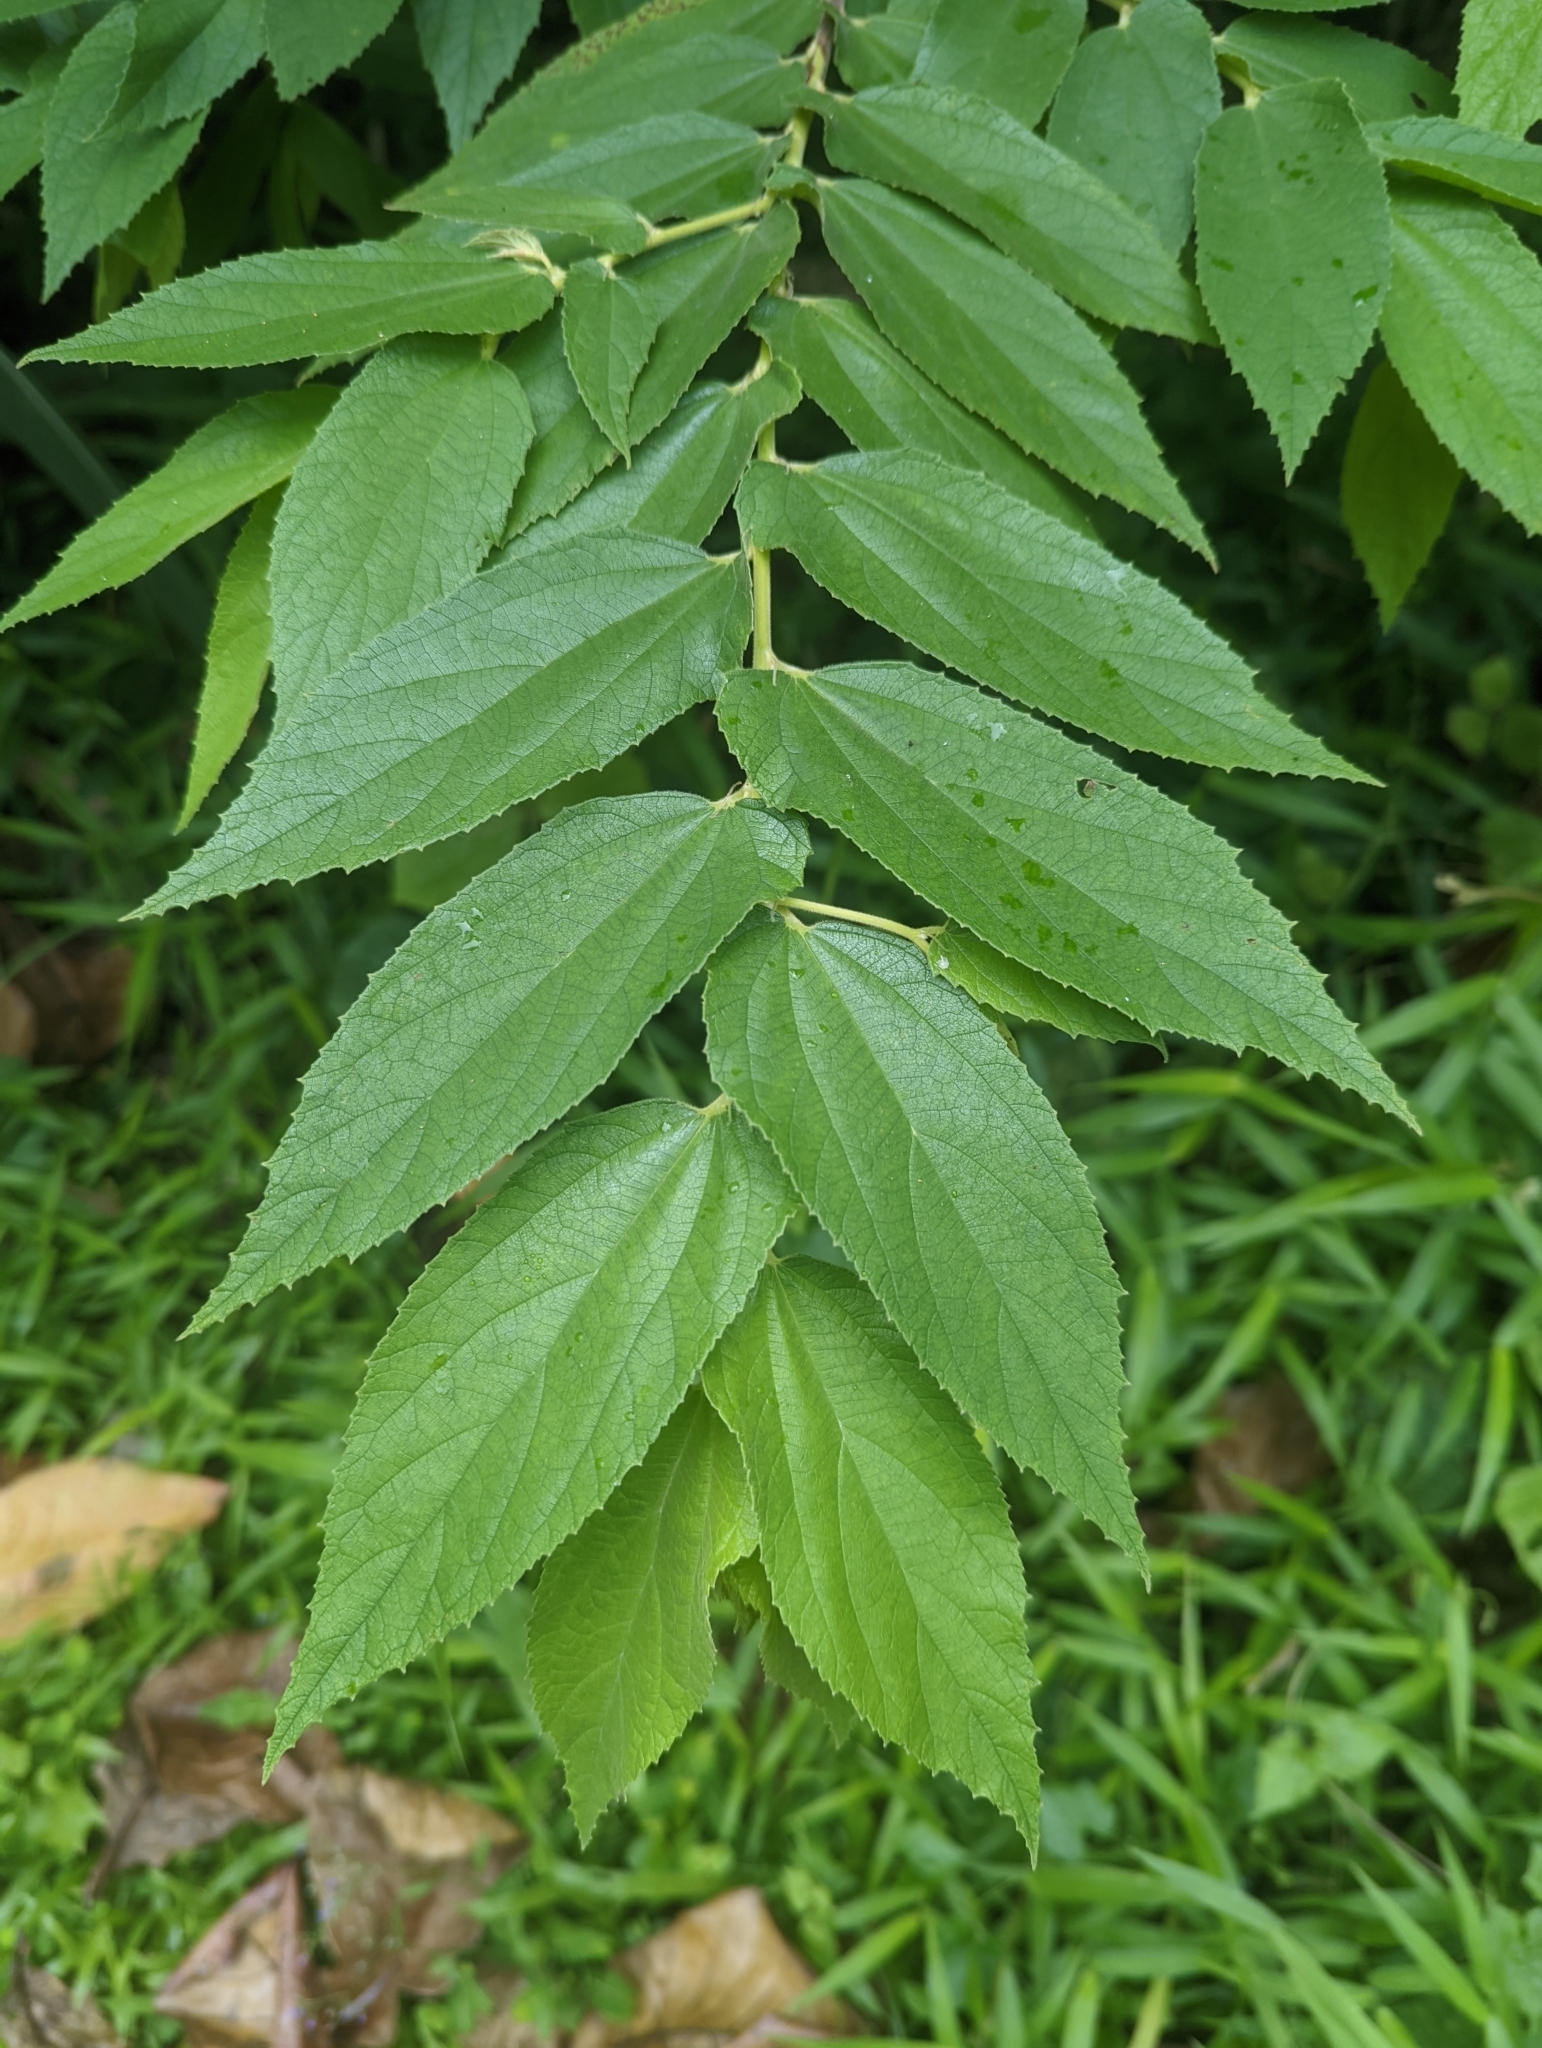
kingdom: Plantae
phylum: Tracheophyta
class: Magnoliopsida
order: Malvales
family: Muntingiaceae
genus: Muntingia
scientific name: Muntingia calabura
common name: Strawberrytree
